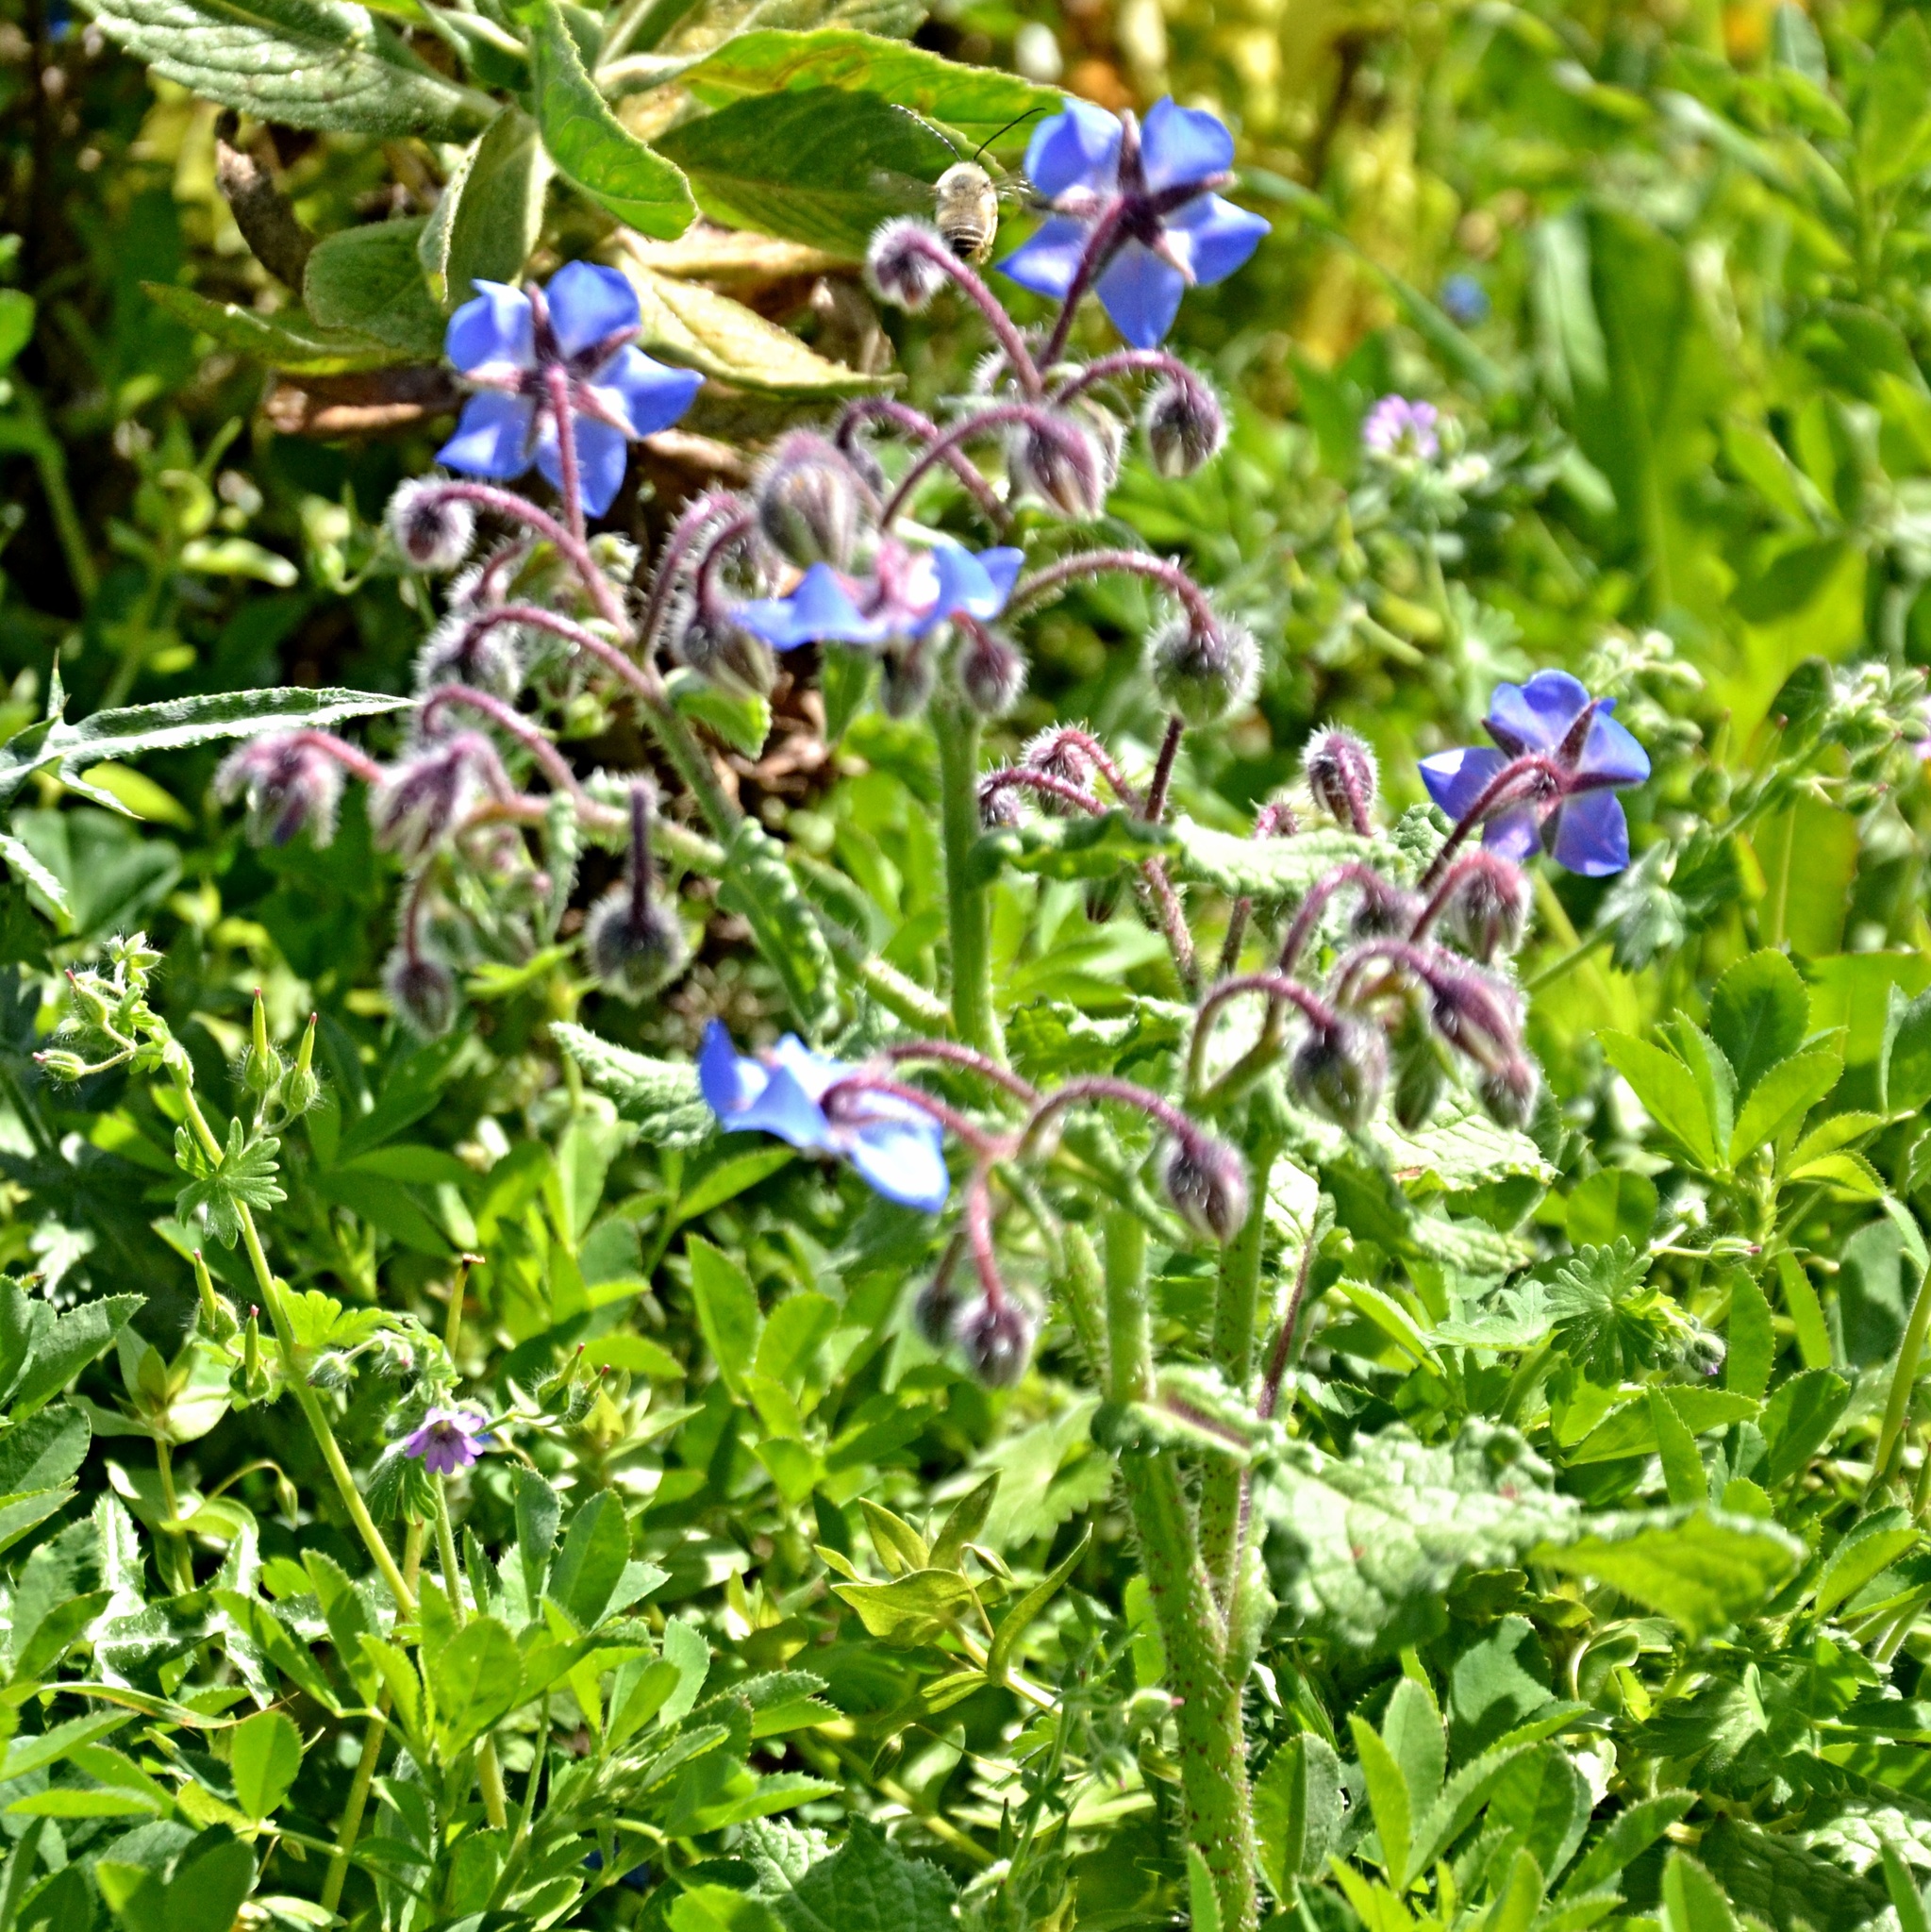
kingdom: Plantae
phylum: Tracheophyta
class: Magnoliopsida
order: Boraginales
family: Boraginaceae
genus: Borago
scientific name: Borago officinalis
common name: Borage
